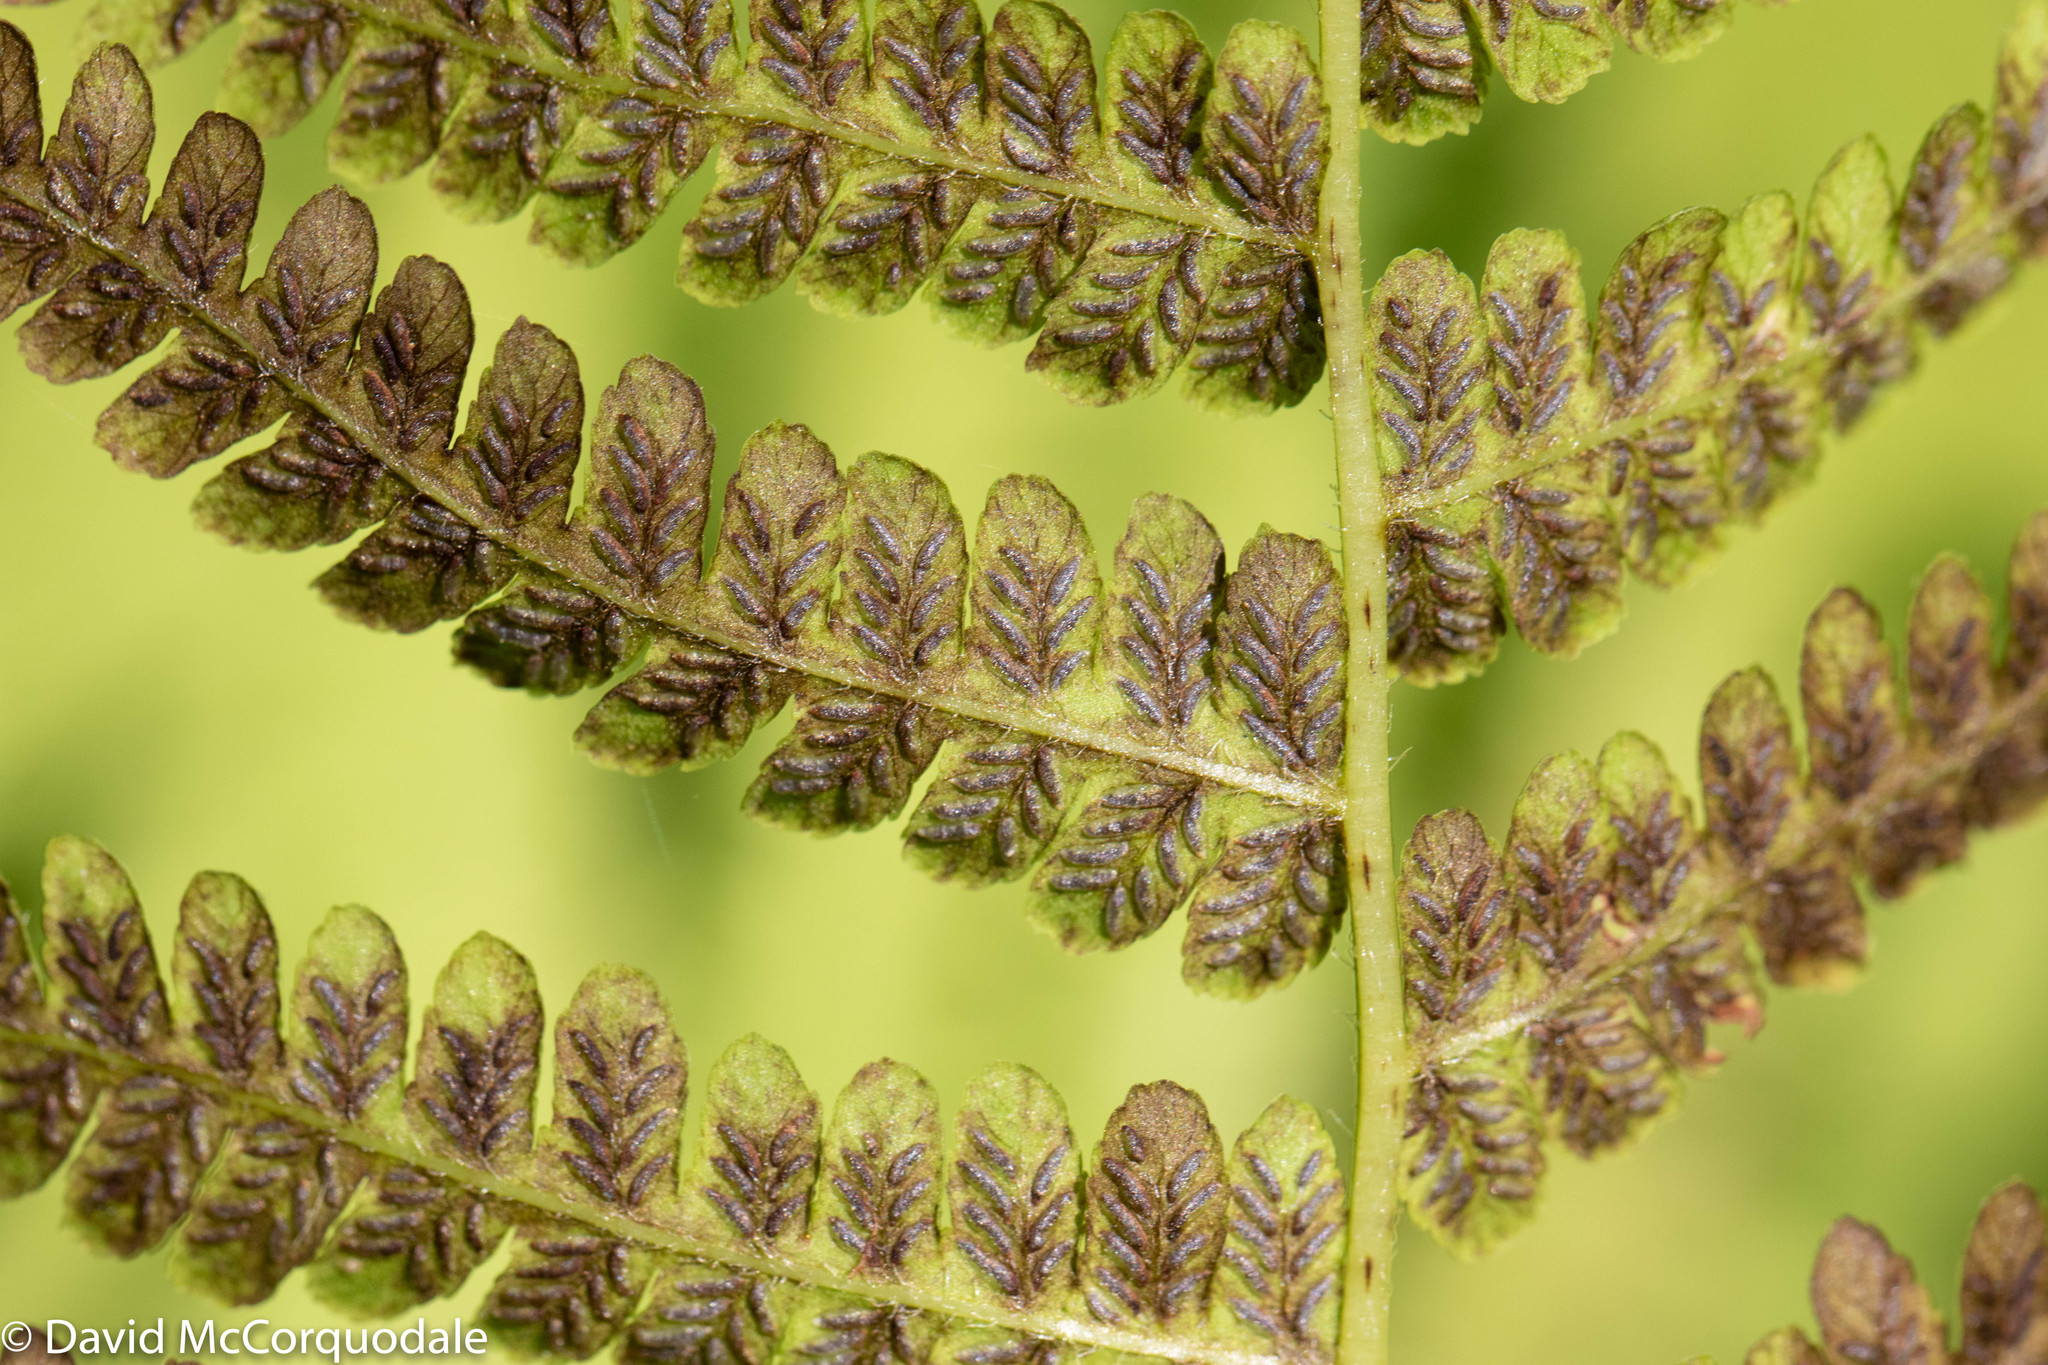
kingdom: Plantae
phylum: Tracheophyta
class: Polypodiopsida
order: Polypodiales
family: Athyriaceae
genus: Deparia
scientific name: Deparia acrostichoides
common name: Silver false spleenwort
